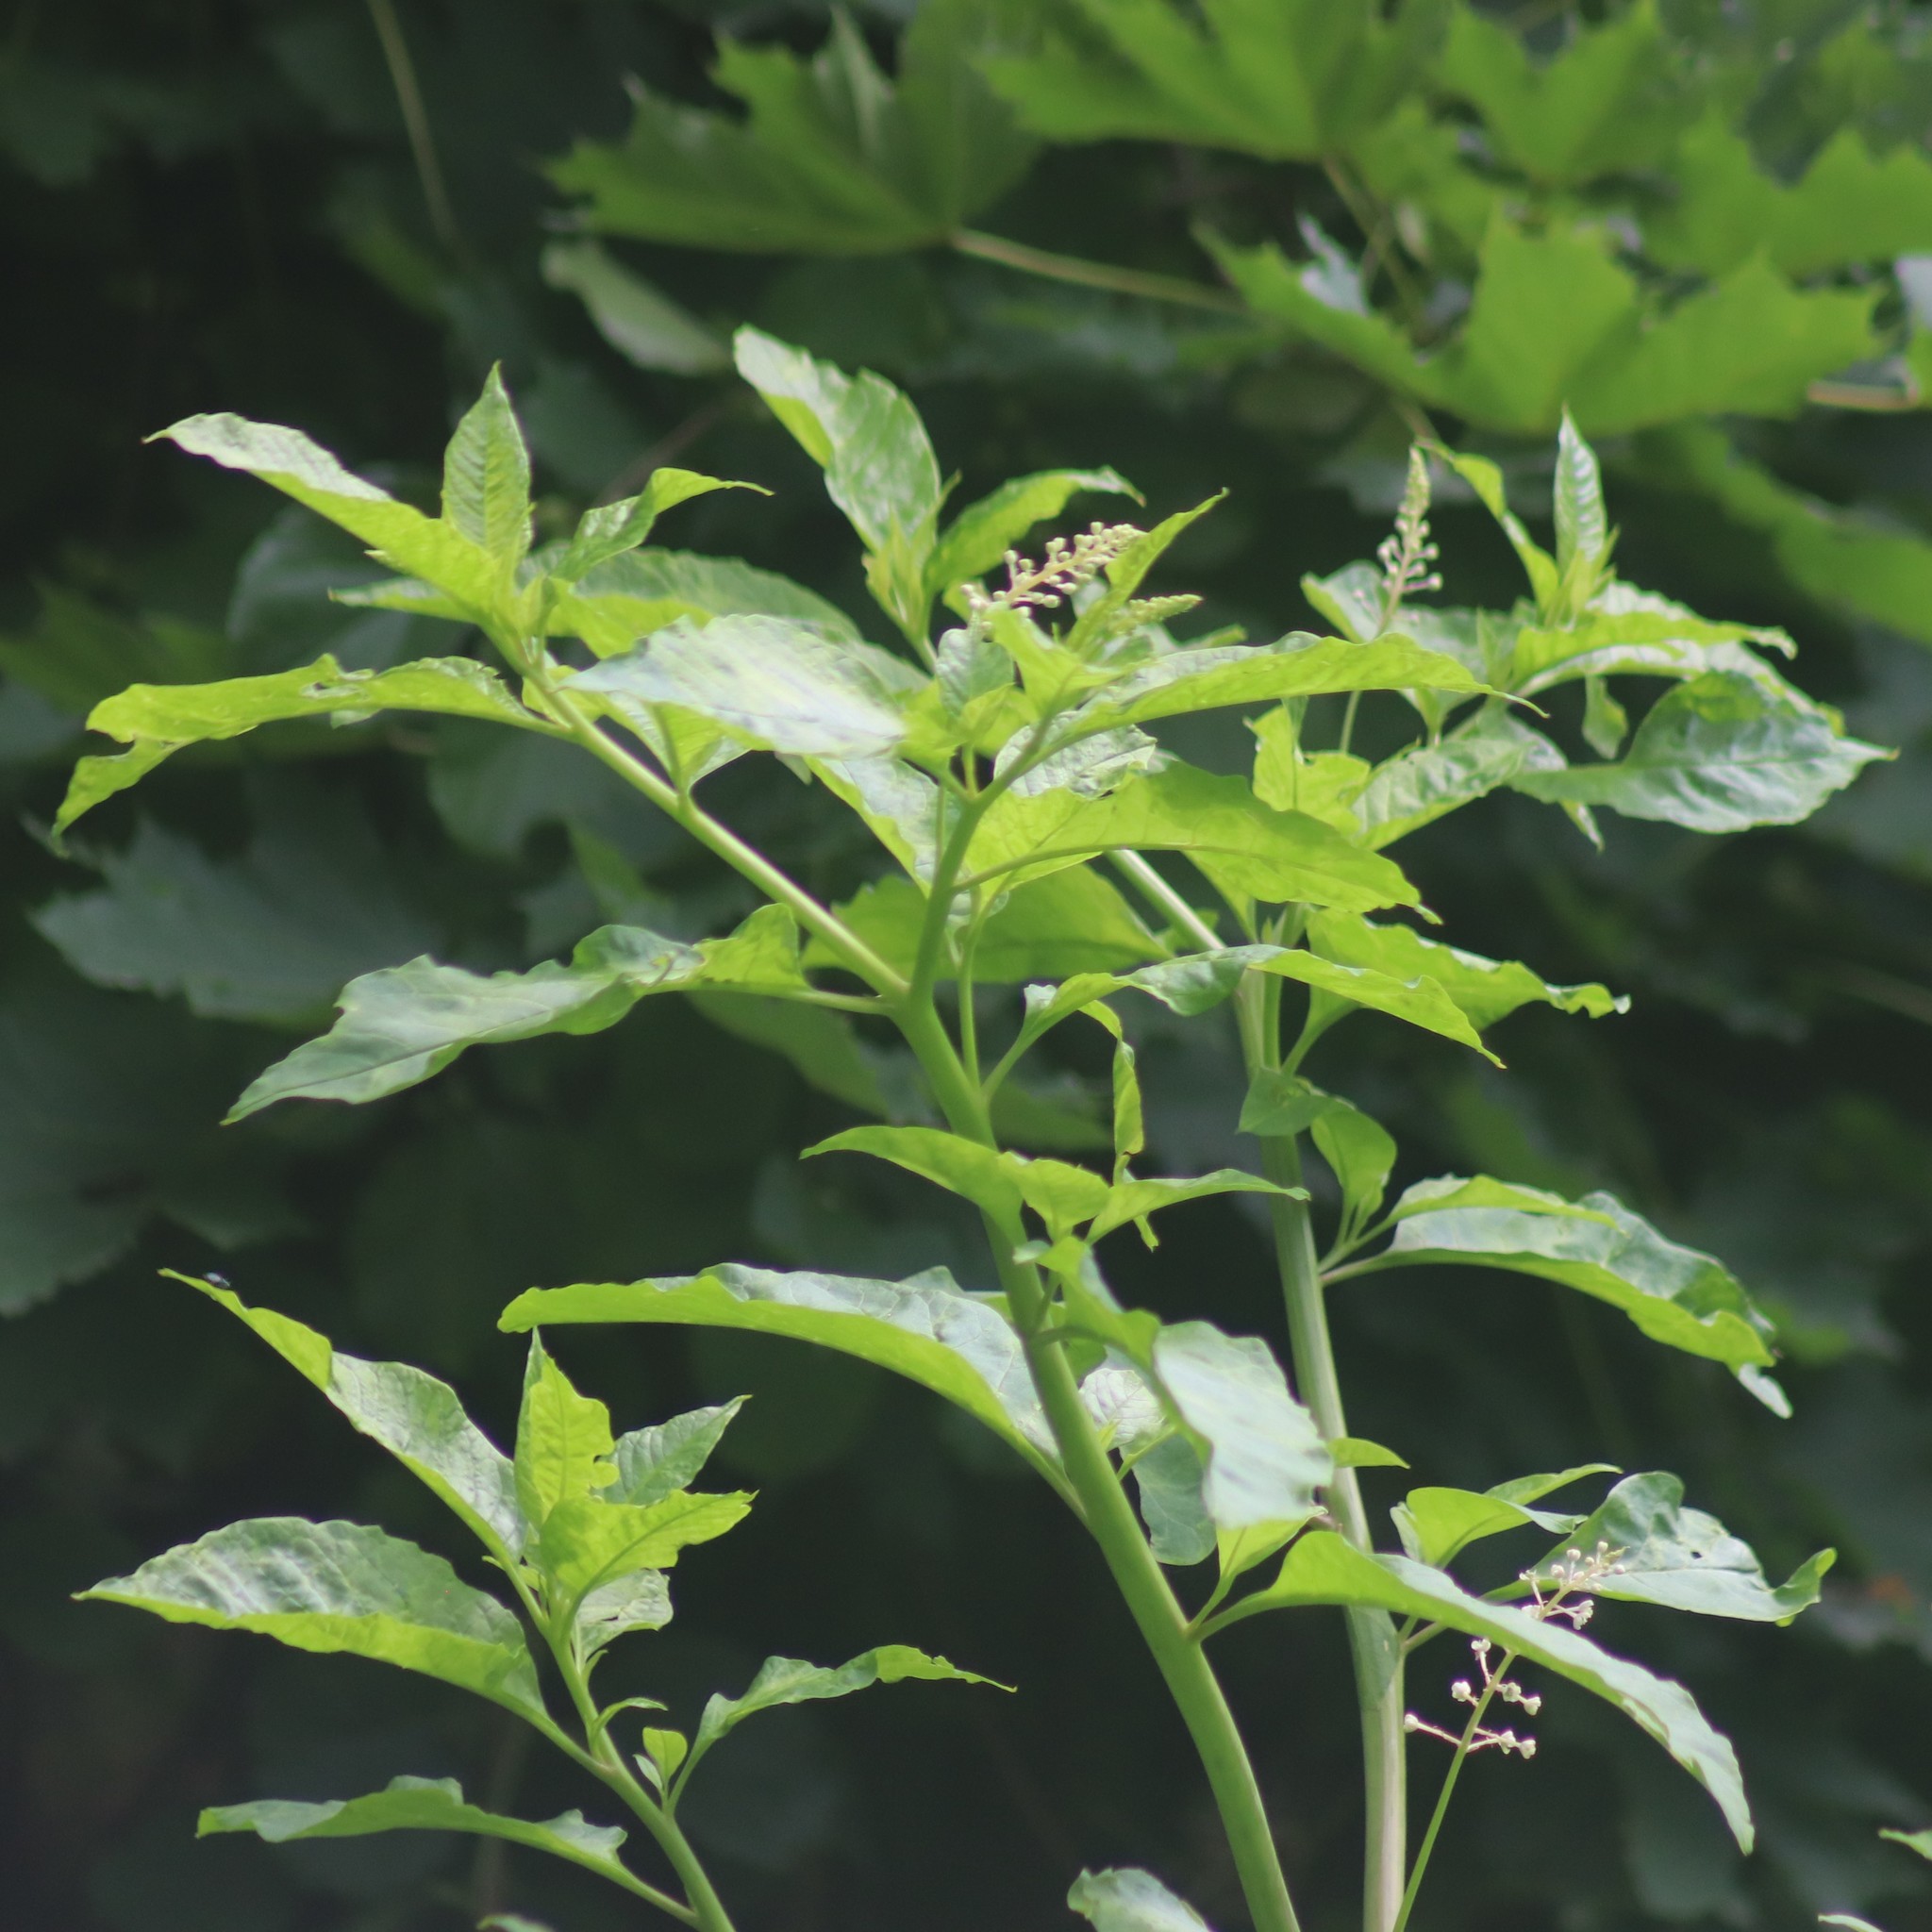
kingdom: Plantae
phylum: Tracheophyta
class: Magnoliopsida
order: Caryophyllales
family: Phytolaccaceae
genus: Phytolacca
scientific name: Phytolacca americana
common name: American pokeweed
